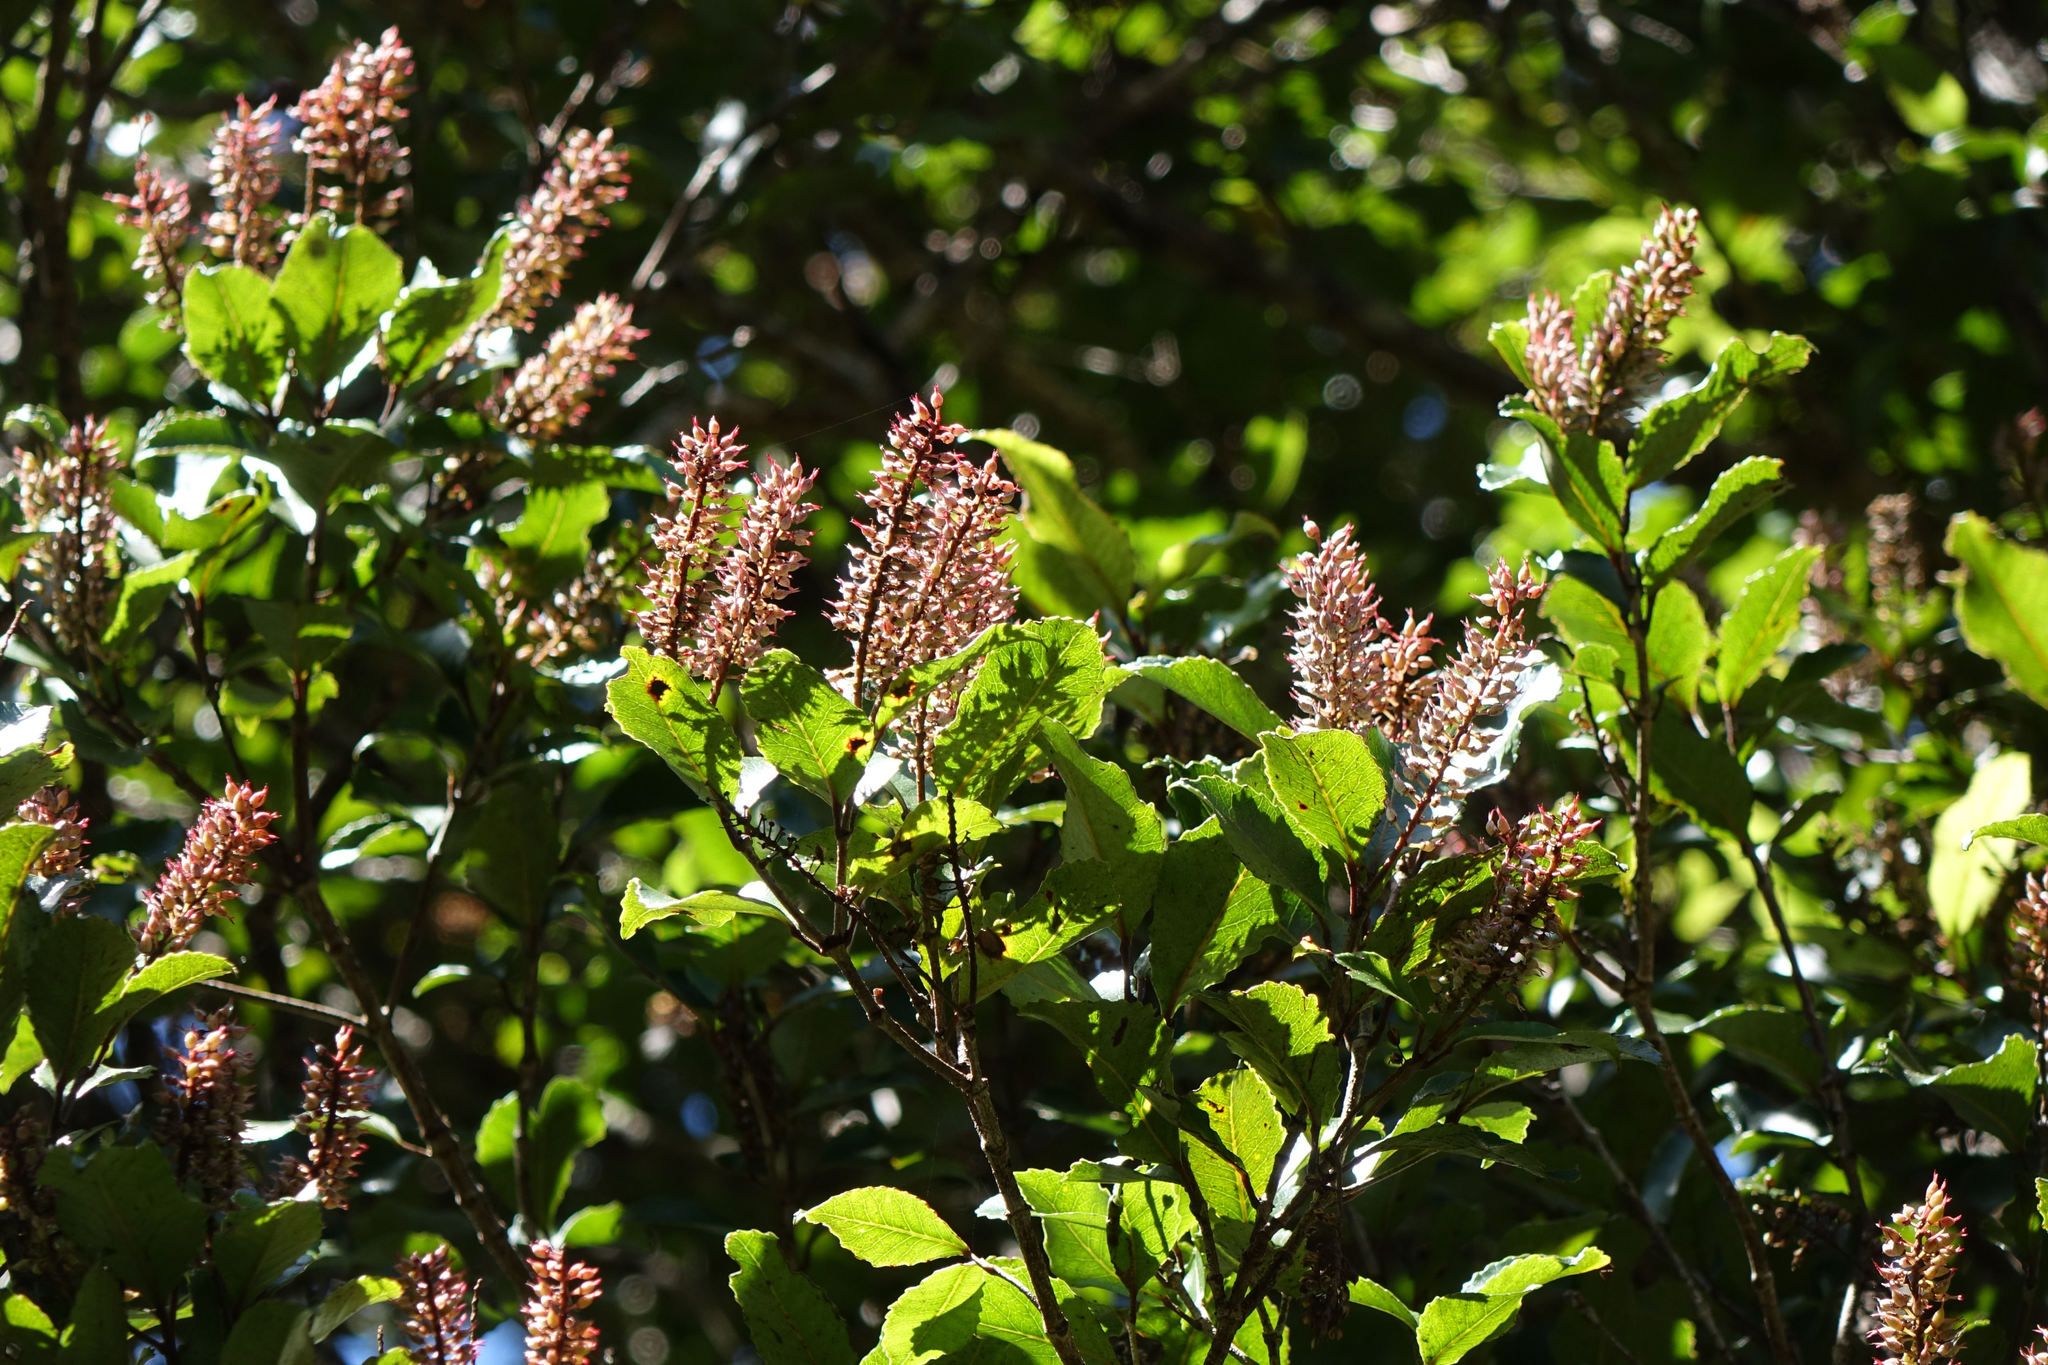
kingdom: Plantae
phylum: Tracheophyta
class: Magnoliopsida
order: Oxalidales
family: Cunoniaceae
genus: Pterophylla
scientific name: Pterophylla racemosa
